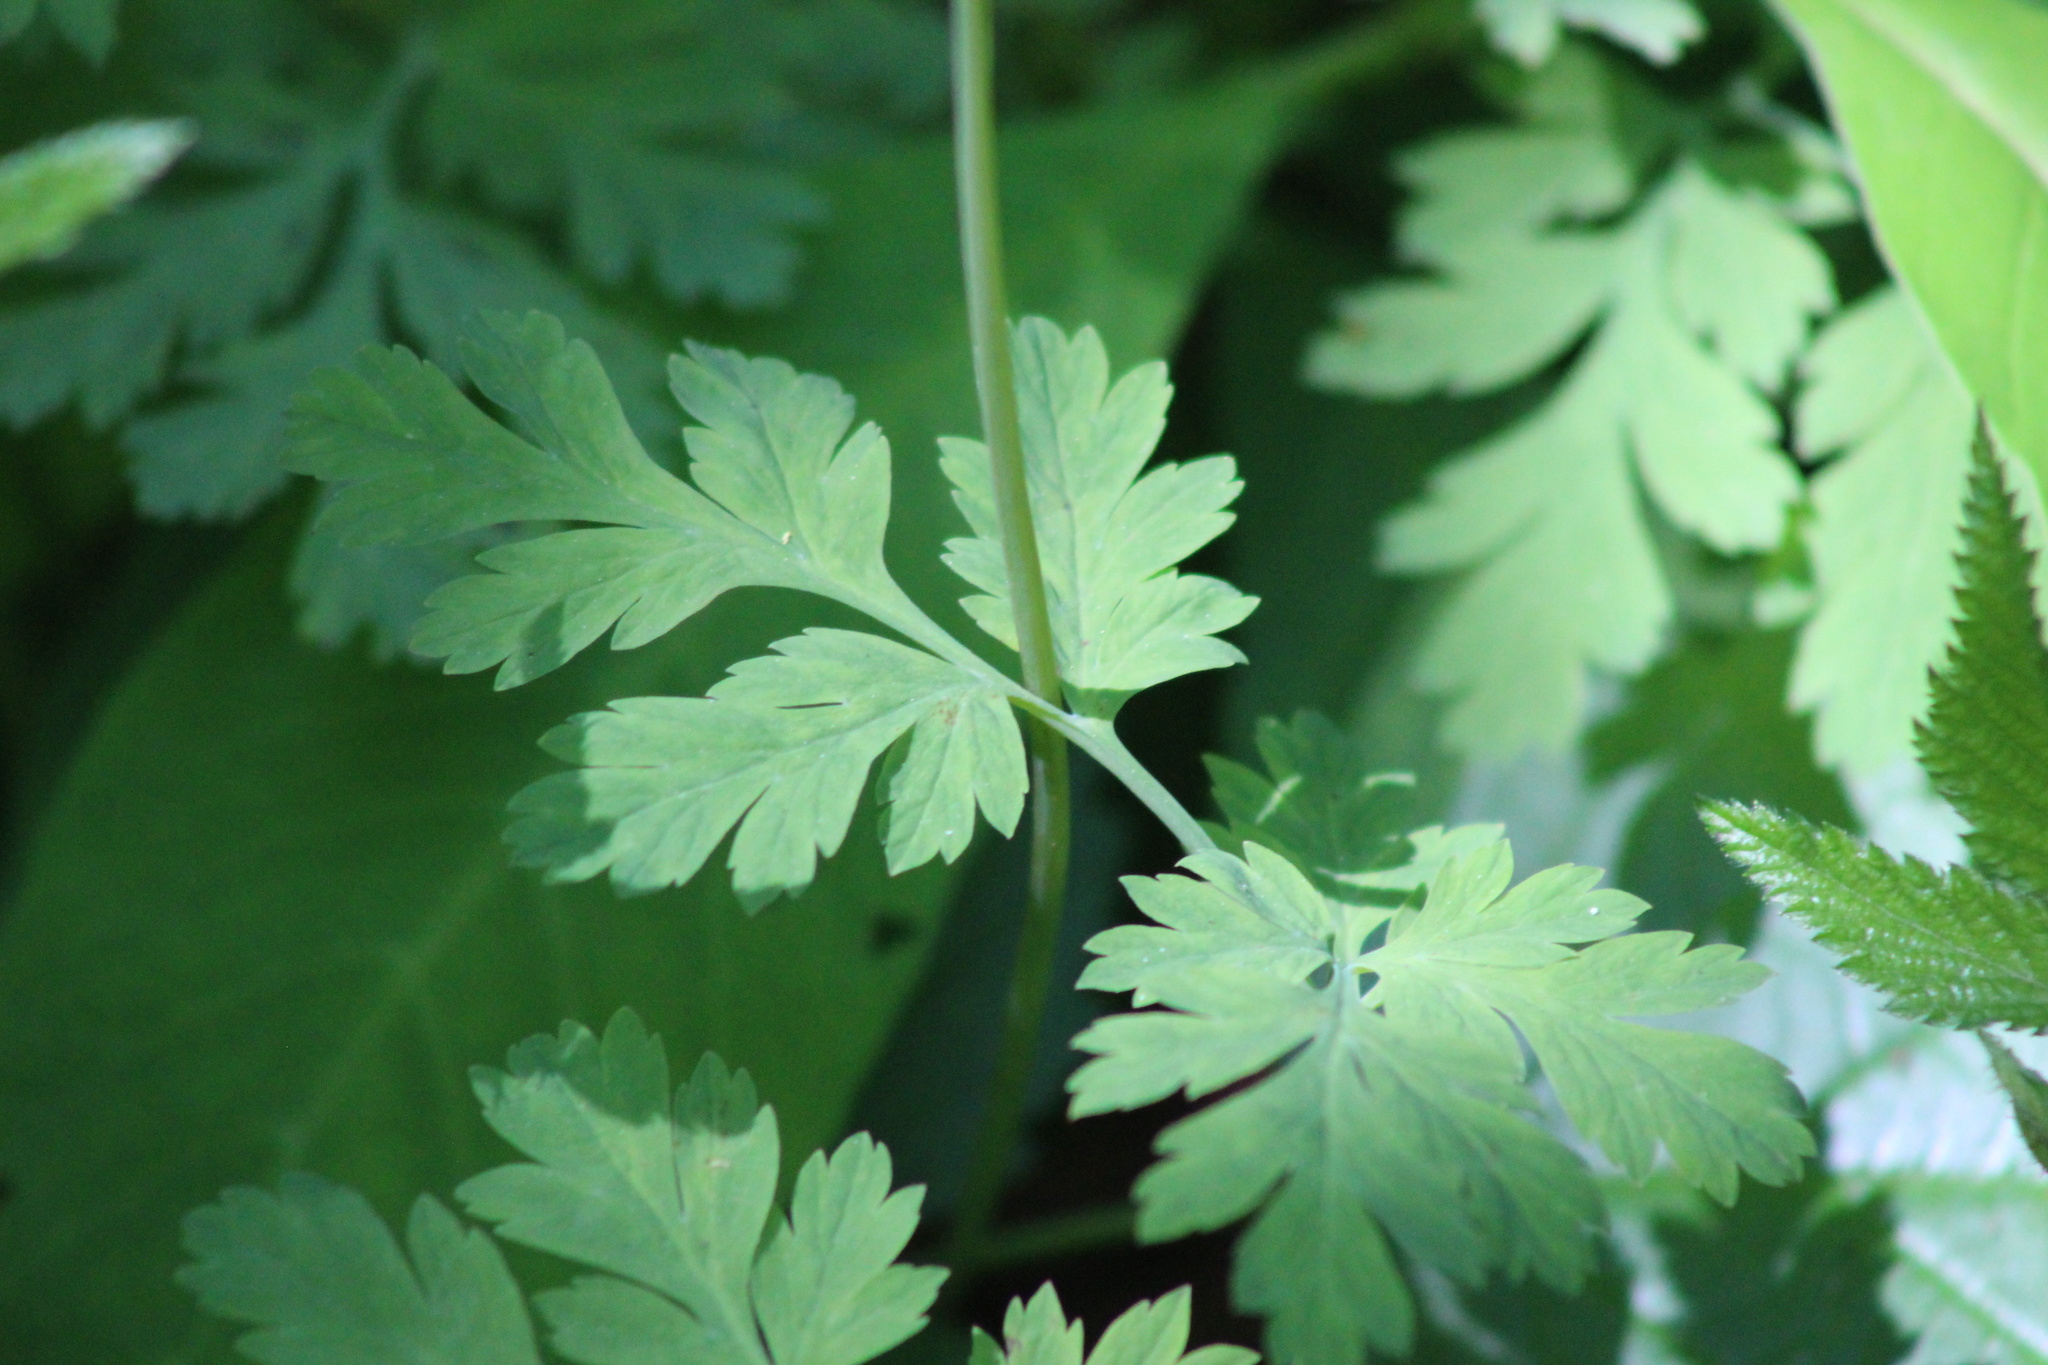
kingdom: Plantae
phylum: Tracheophyta
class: Magnoliopsida
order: Ranunculales
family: Papaveraceae
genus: Dicentra
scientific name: Dicentra formosa
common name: Bleeding-heart
